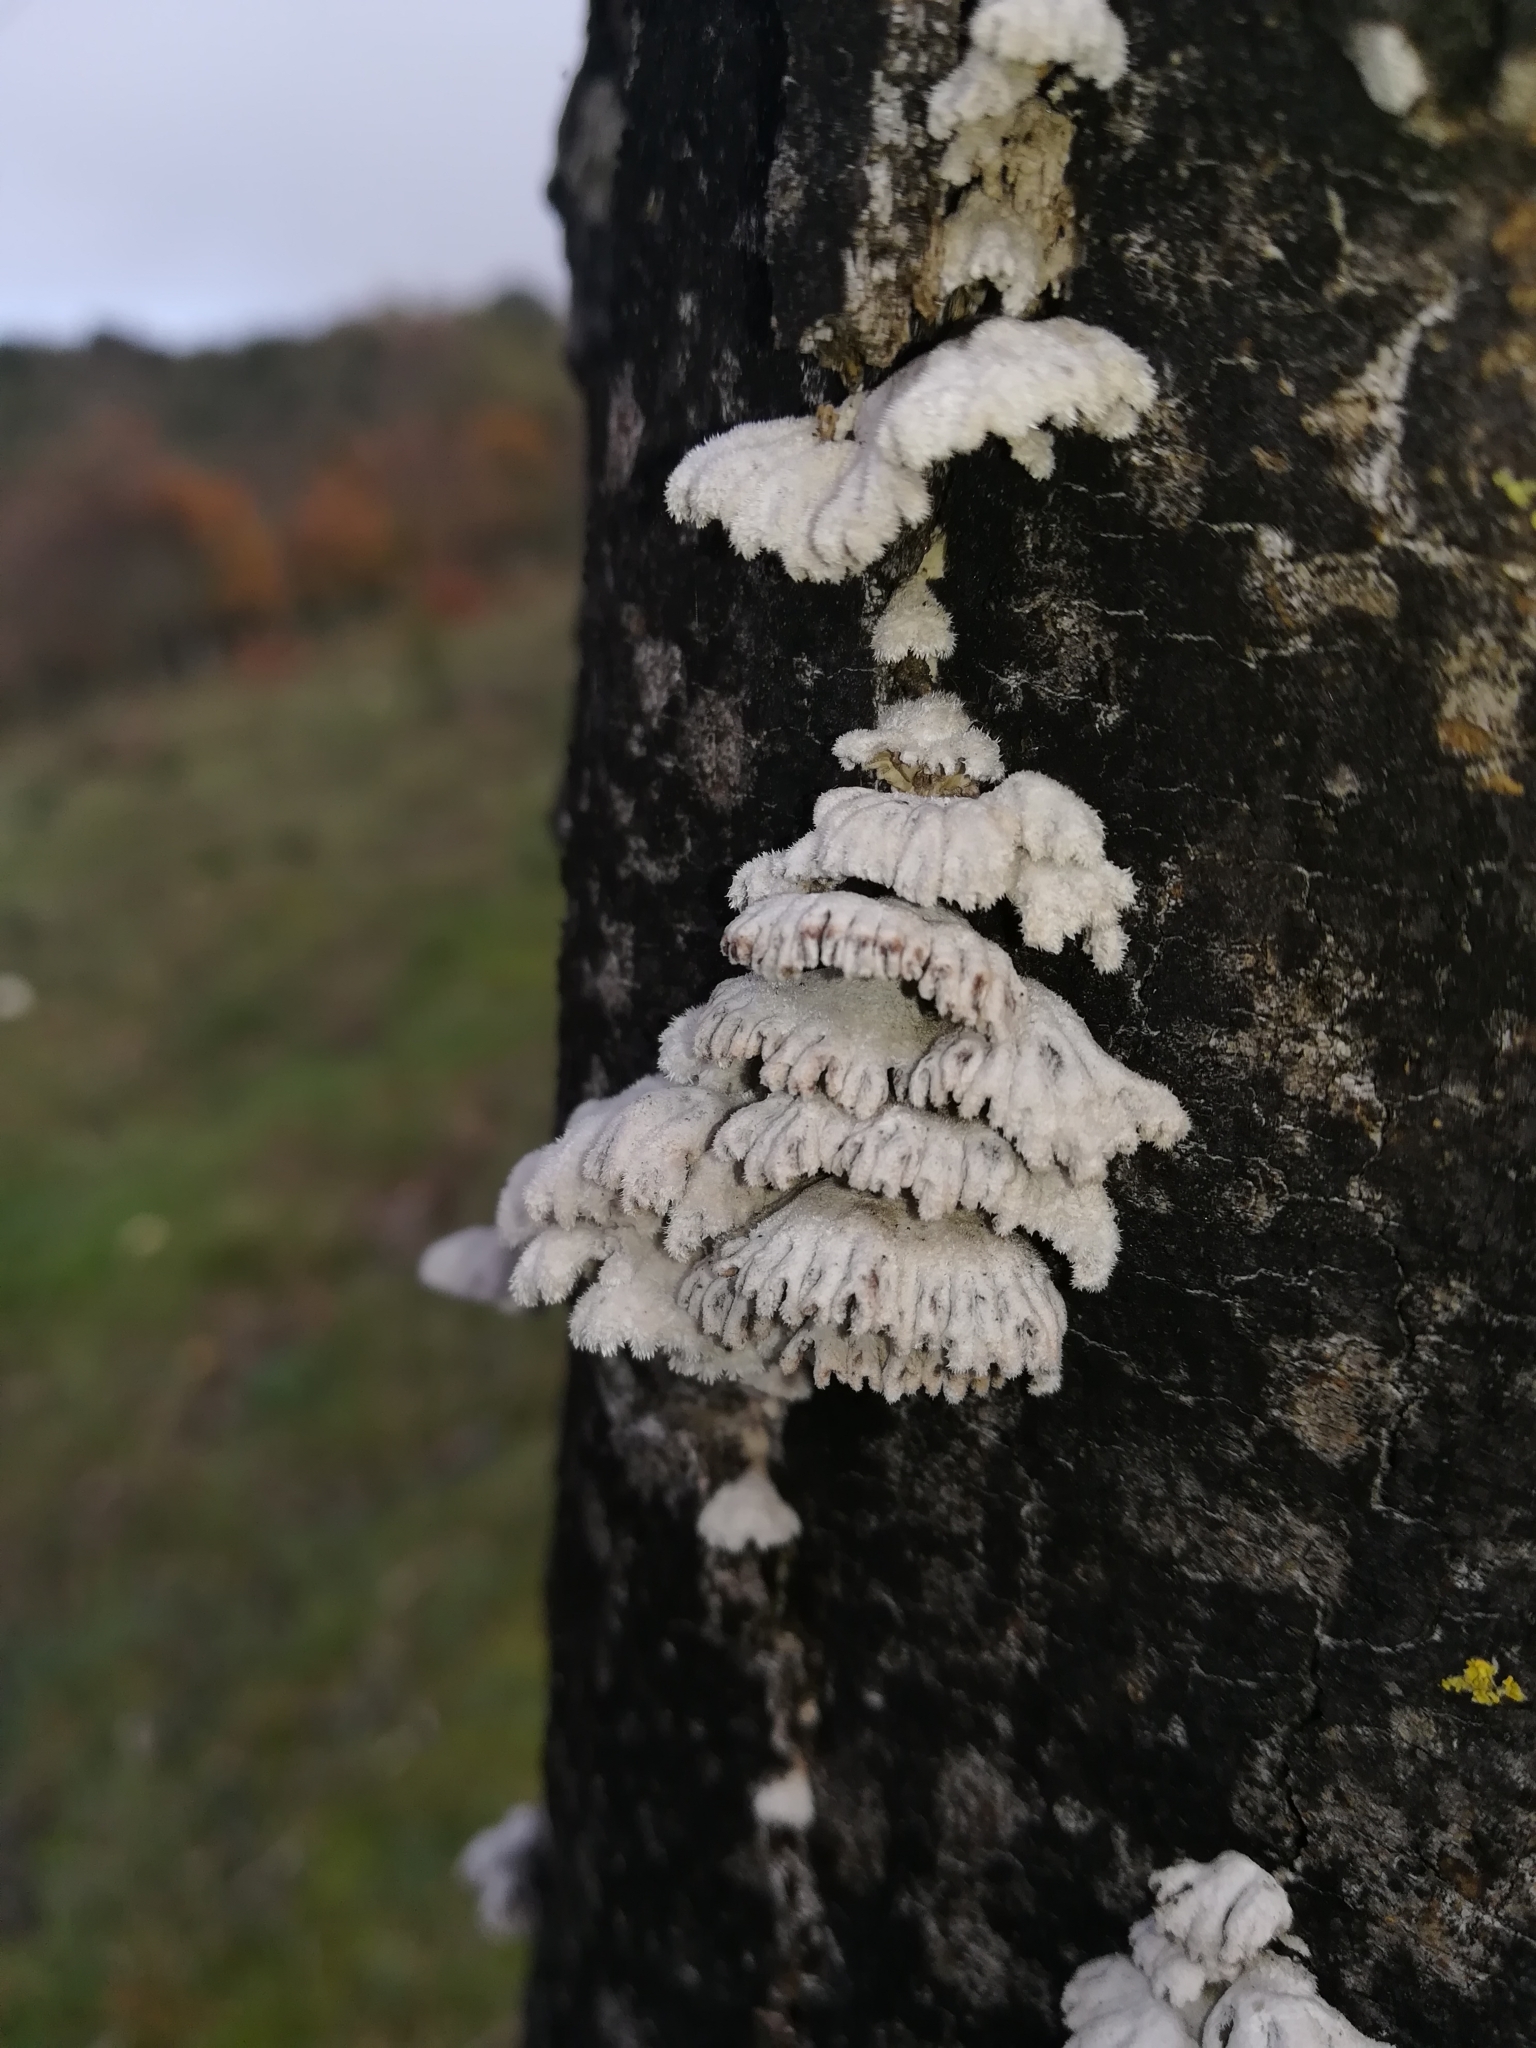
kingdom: Fungi
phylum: Basidiomycota
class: Agaricomycetes
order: Agaricales
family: Schizophyllaceae
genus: Schizophyllum
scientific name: Schizophyllum commune
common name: Common porecrust
